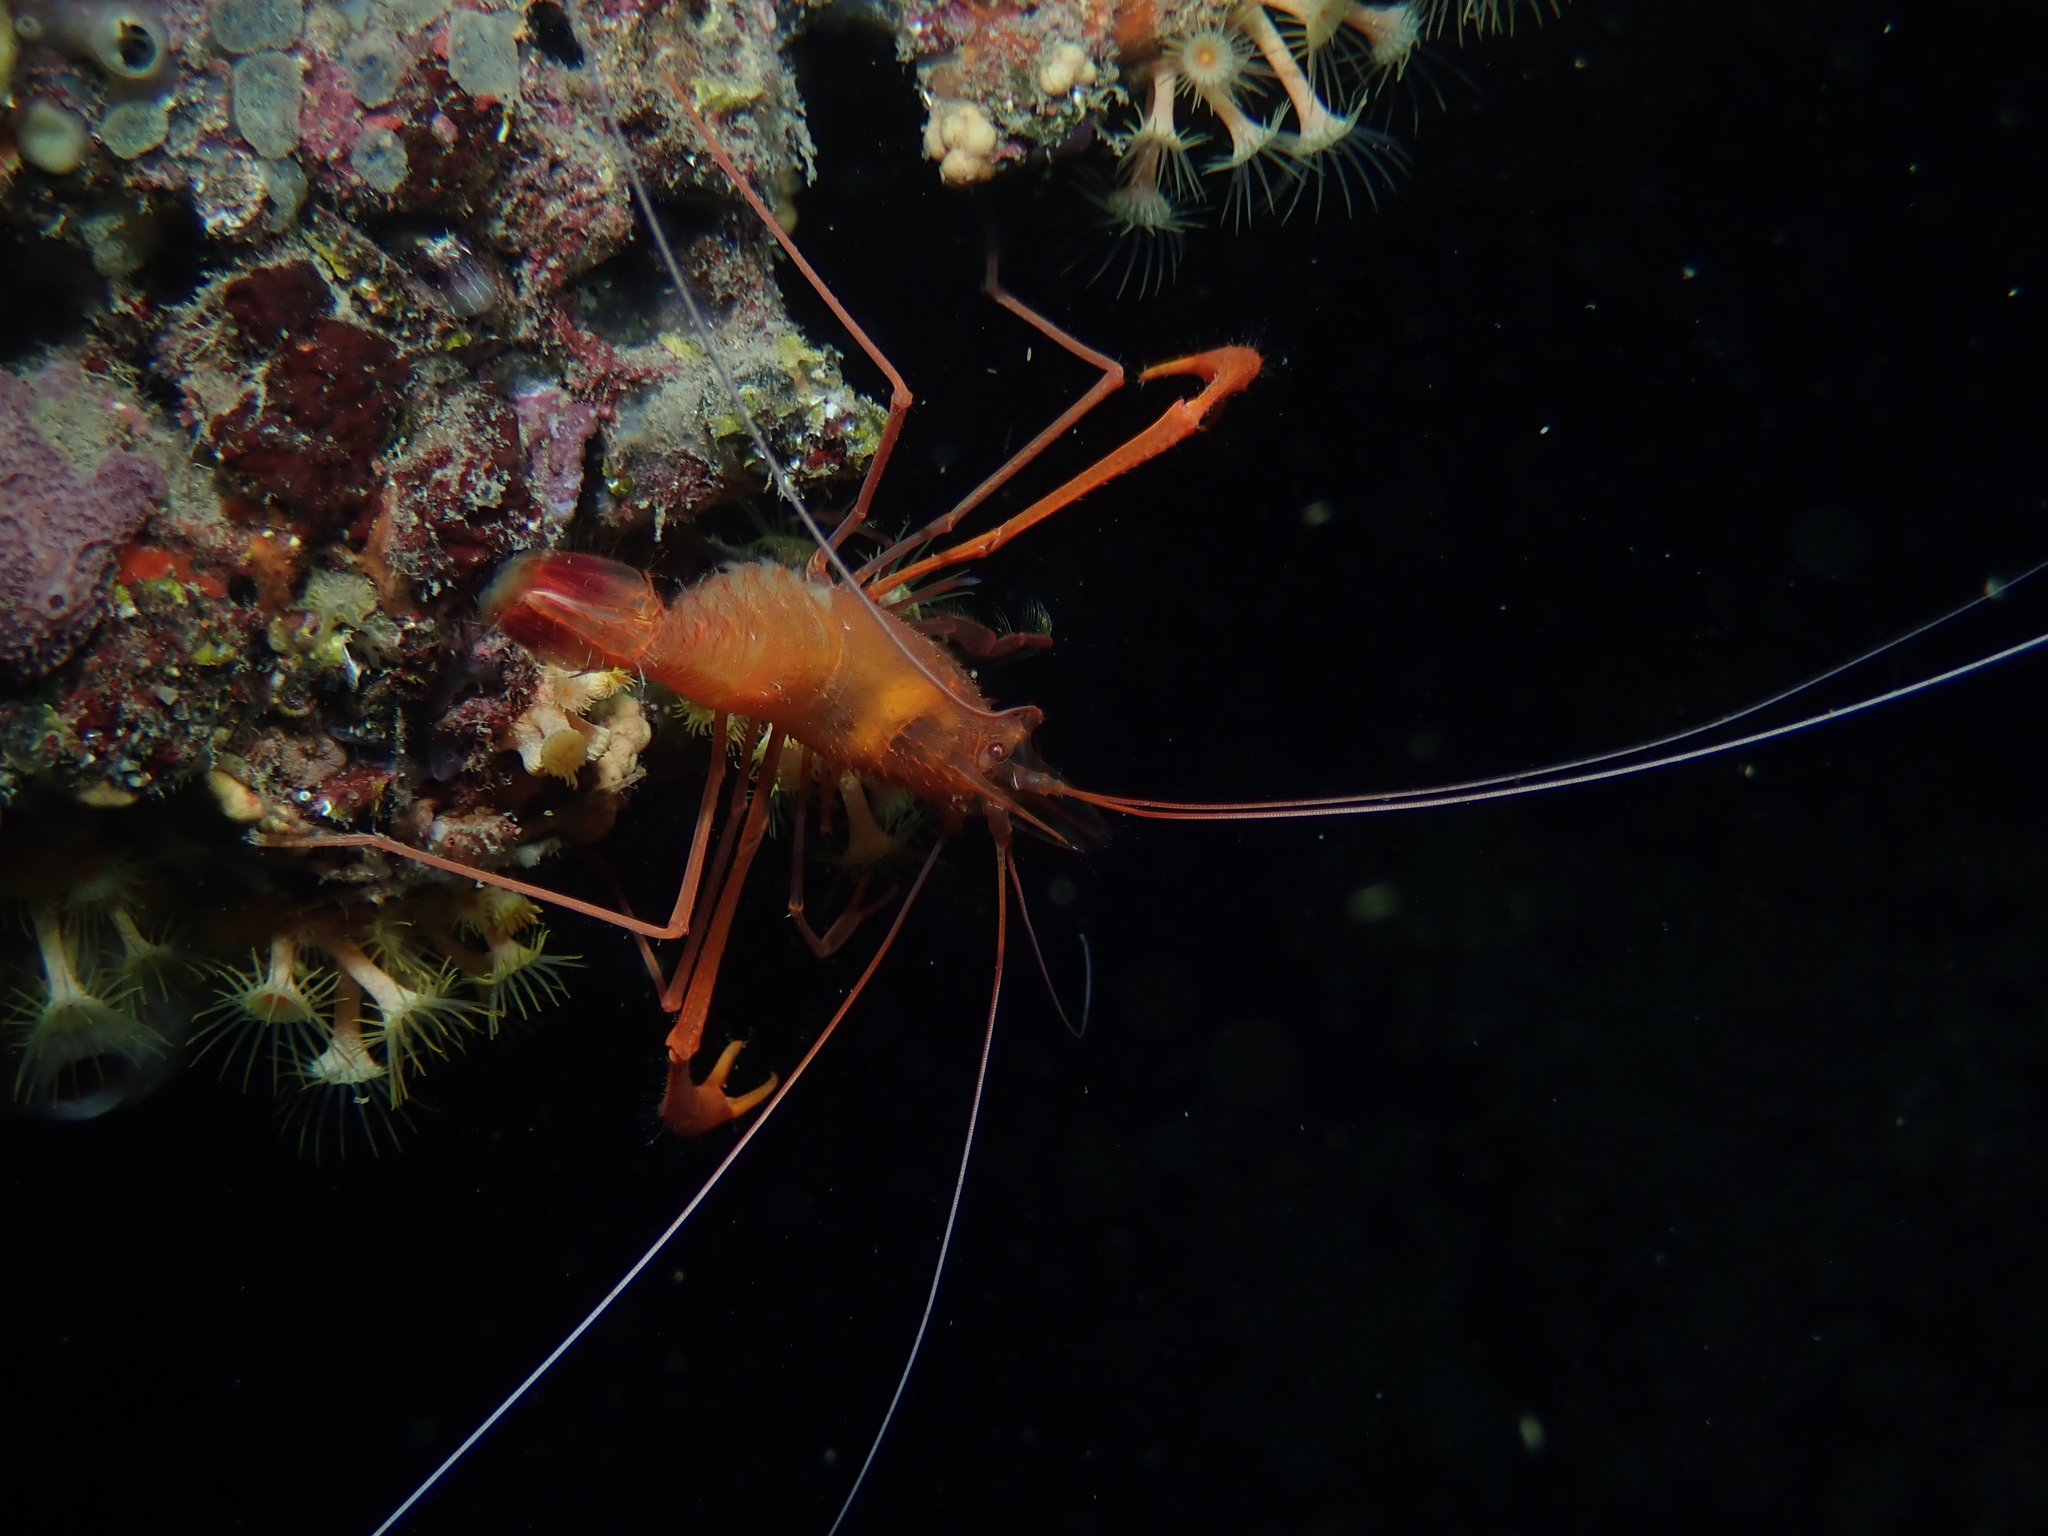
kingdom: Animalia
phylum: Arthropoda
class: Malacostraca
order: Decapoda
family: Stenopodidae
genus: Stenopus
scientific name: Stenopus spinosus
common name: Golden coral shrimp
